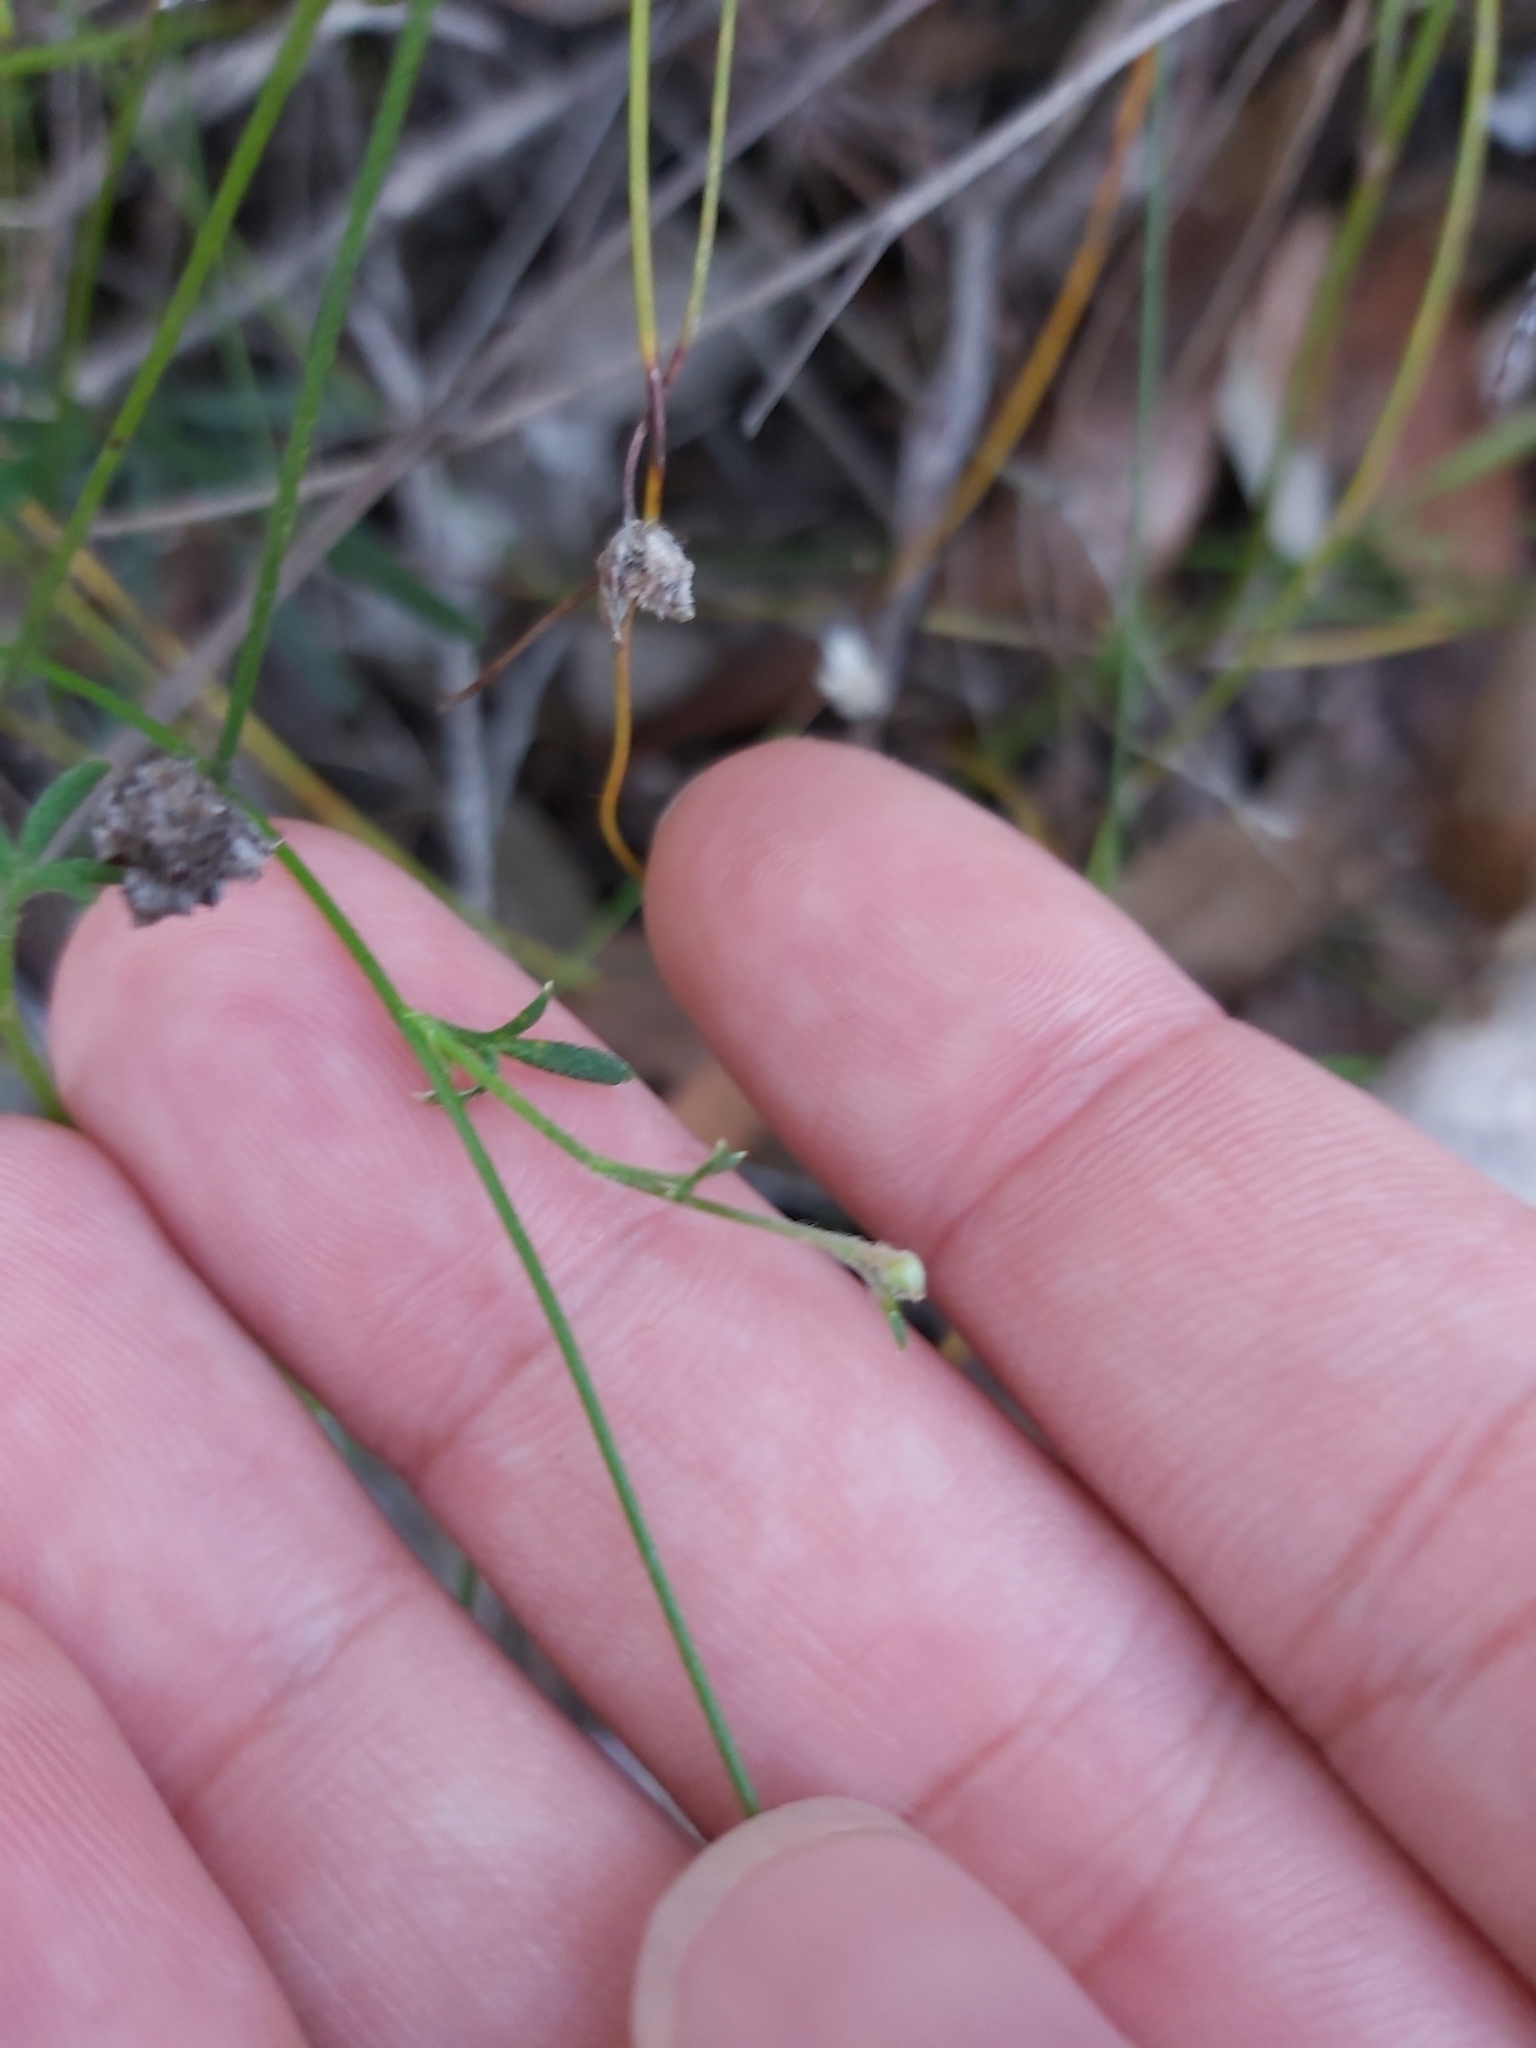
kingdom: Plantae
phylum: Tracheophyta
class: Magnoliopsida
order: Apiales
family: Apiaceae
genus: Actinotus
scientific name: Actinotus minor
